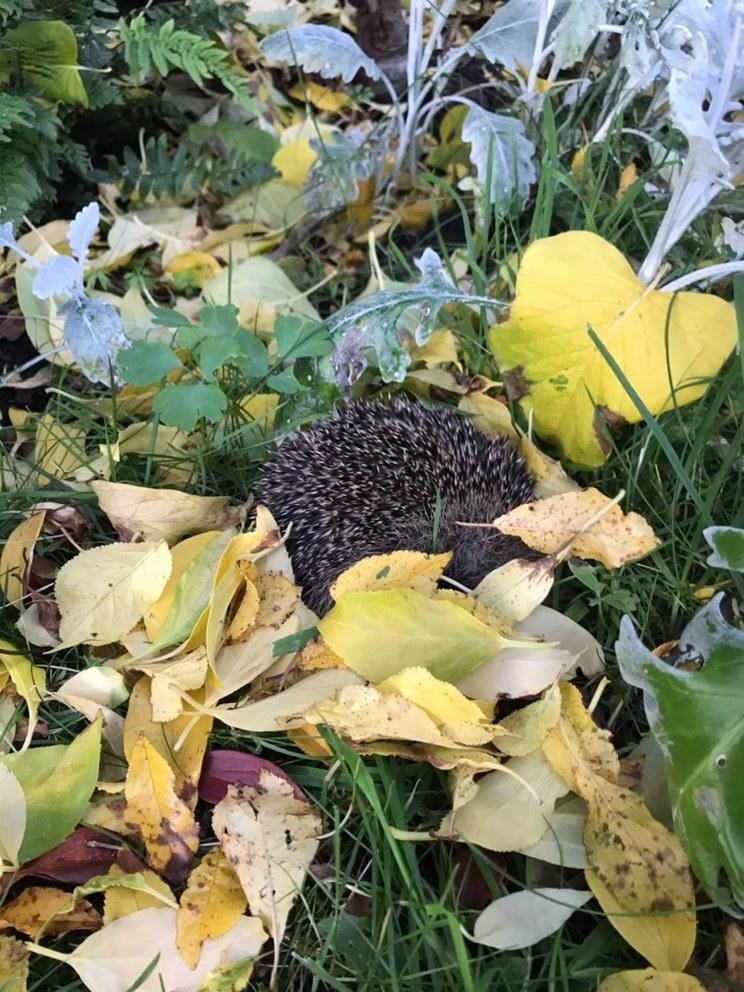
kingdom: Animalia
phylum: Chordata
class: Mammalia
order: Erinaceomorpha
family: Erinaceidae
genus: Erinaceus
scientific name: Erinaceus europaeus
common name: West european hedgehog
